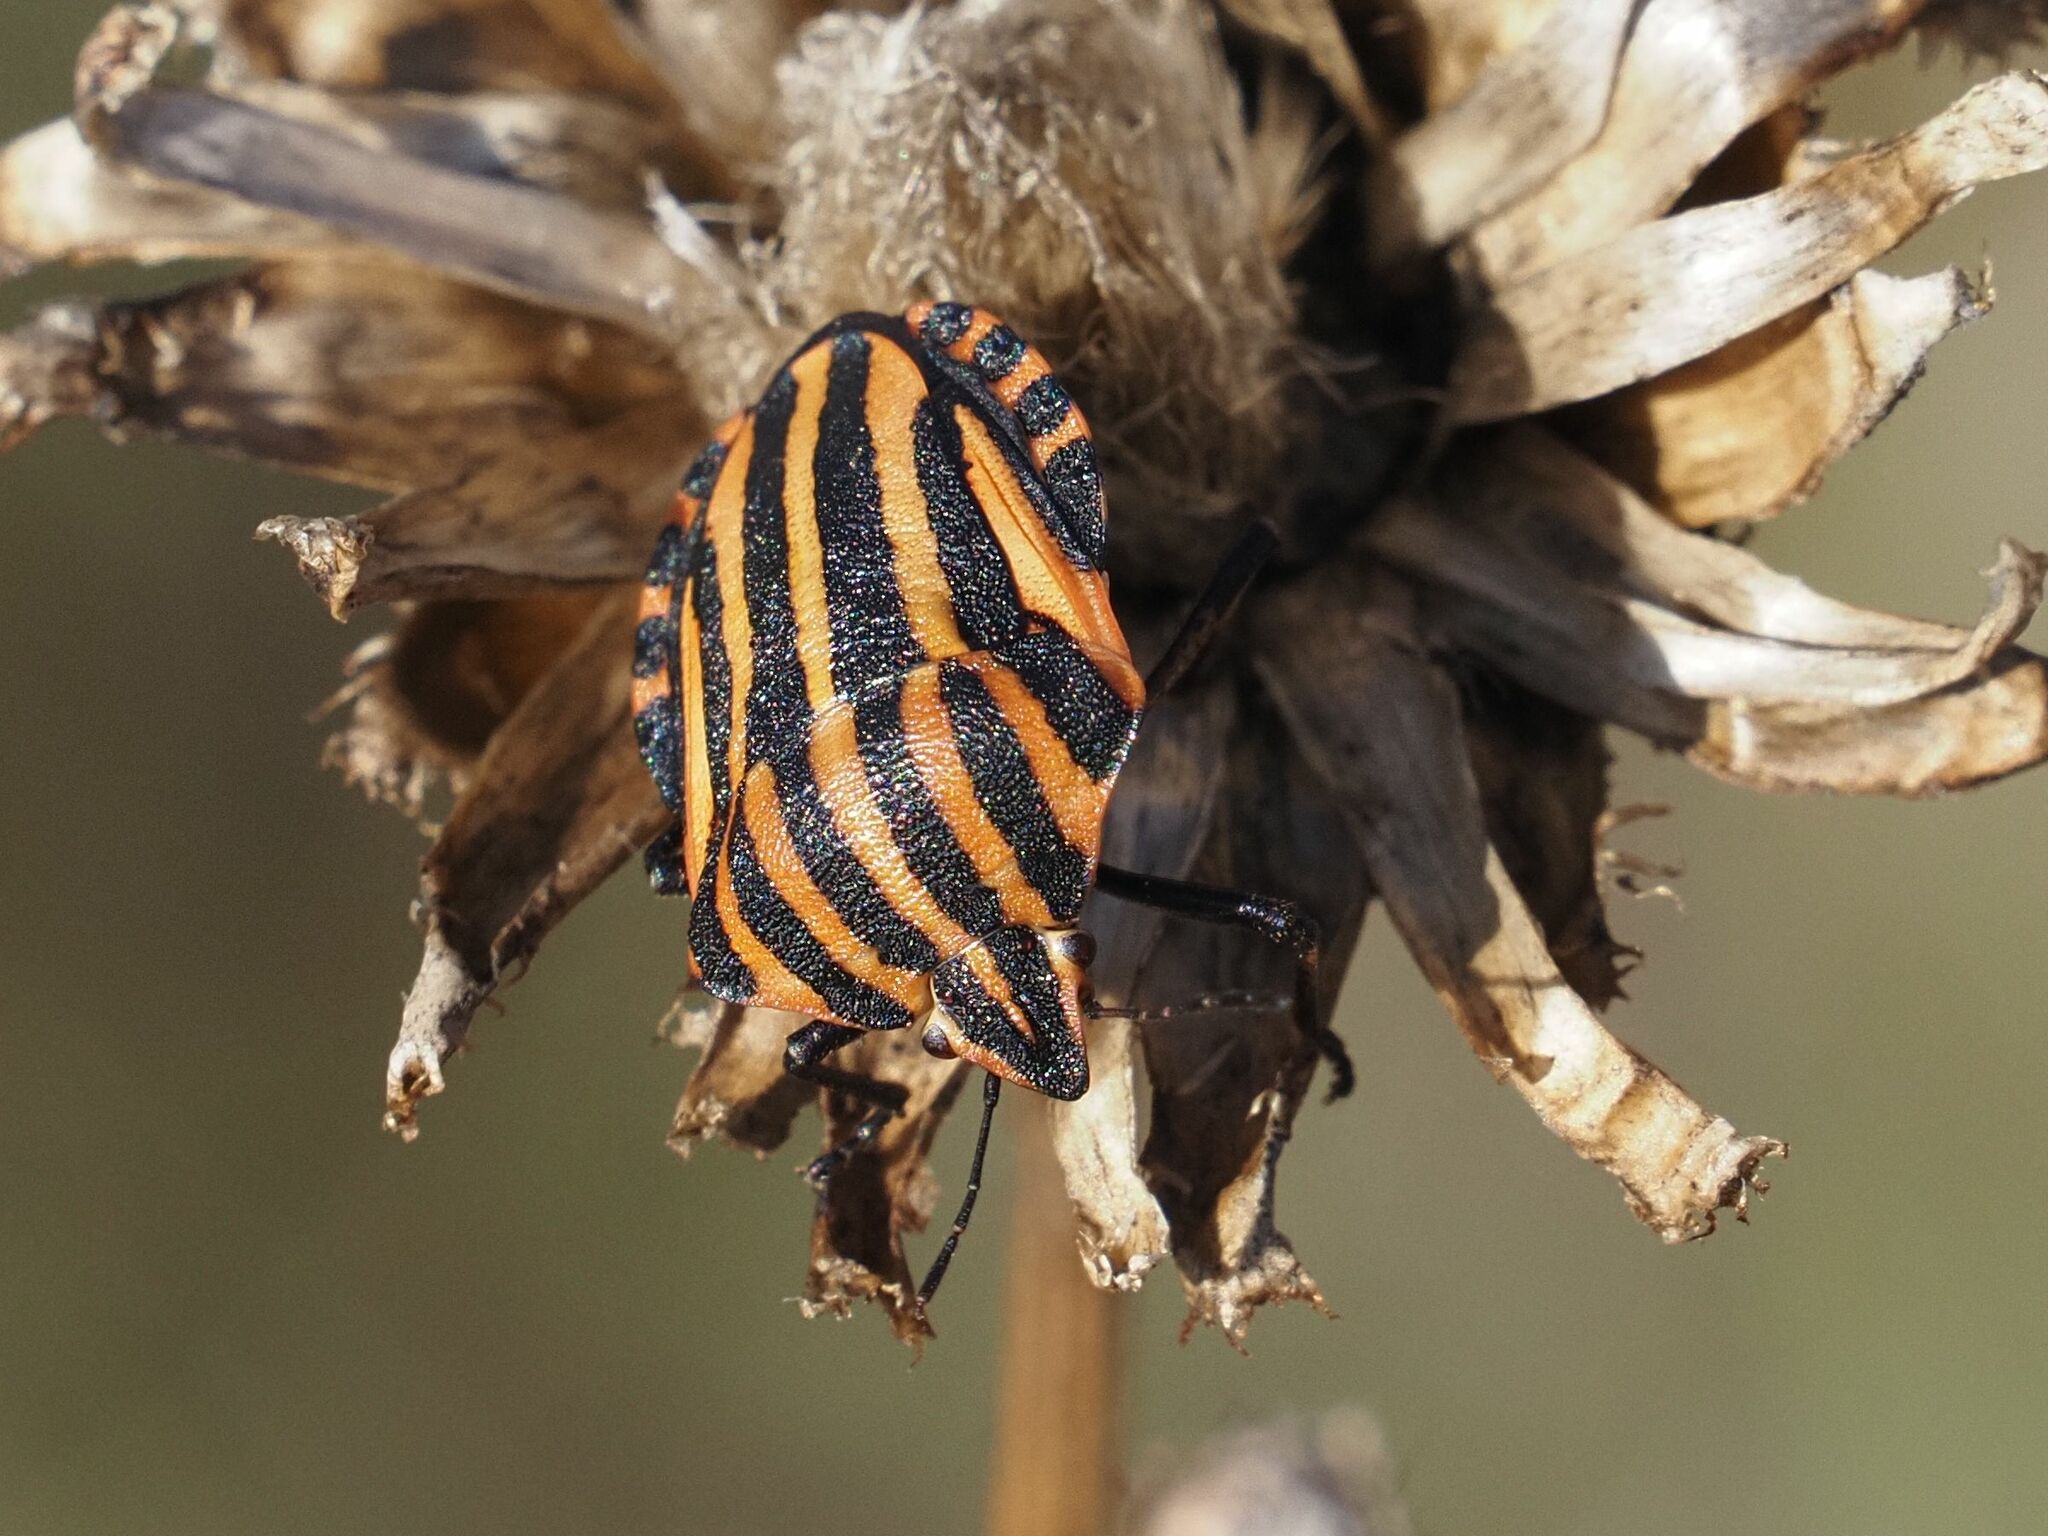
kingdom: Animalia
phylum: Arthropoda
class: Insecta
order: Hemiptera
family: Pentatomidae
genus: Graphosoma
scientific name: Graphosoma italicum
